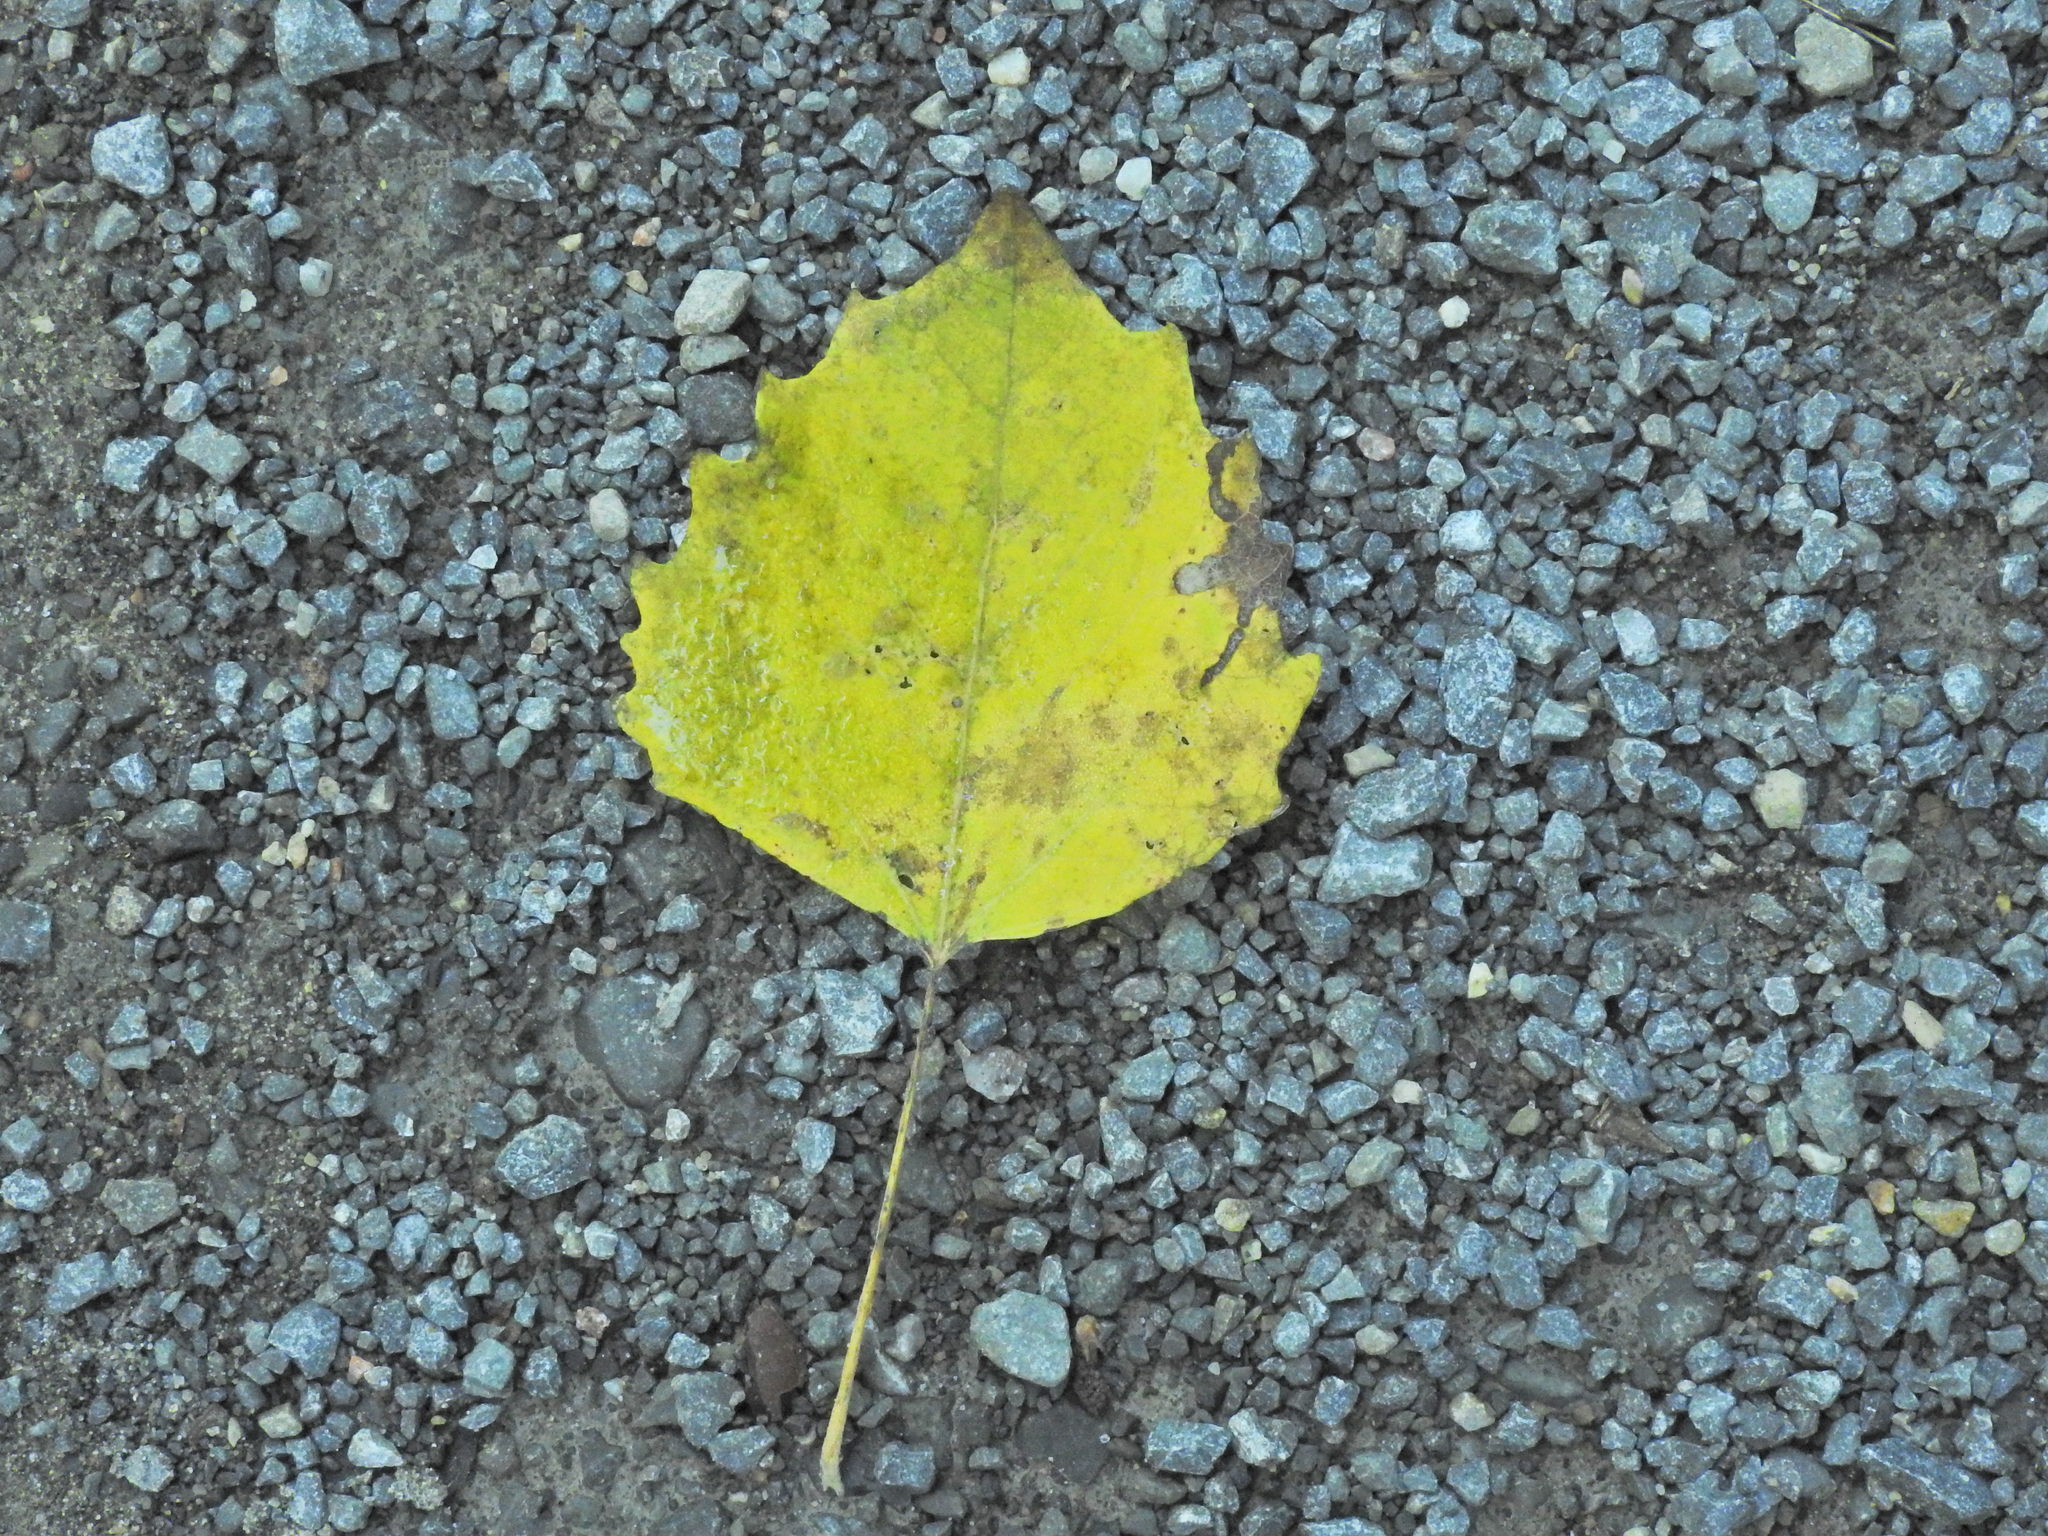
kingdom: Plantae
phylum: Tracheophyta
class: Magnoliopsida
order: Malpighiales
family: Salicaceae
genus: Populus
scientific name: Populus grandidentata
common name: Bigtooth aspen
